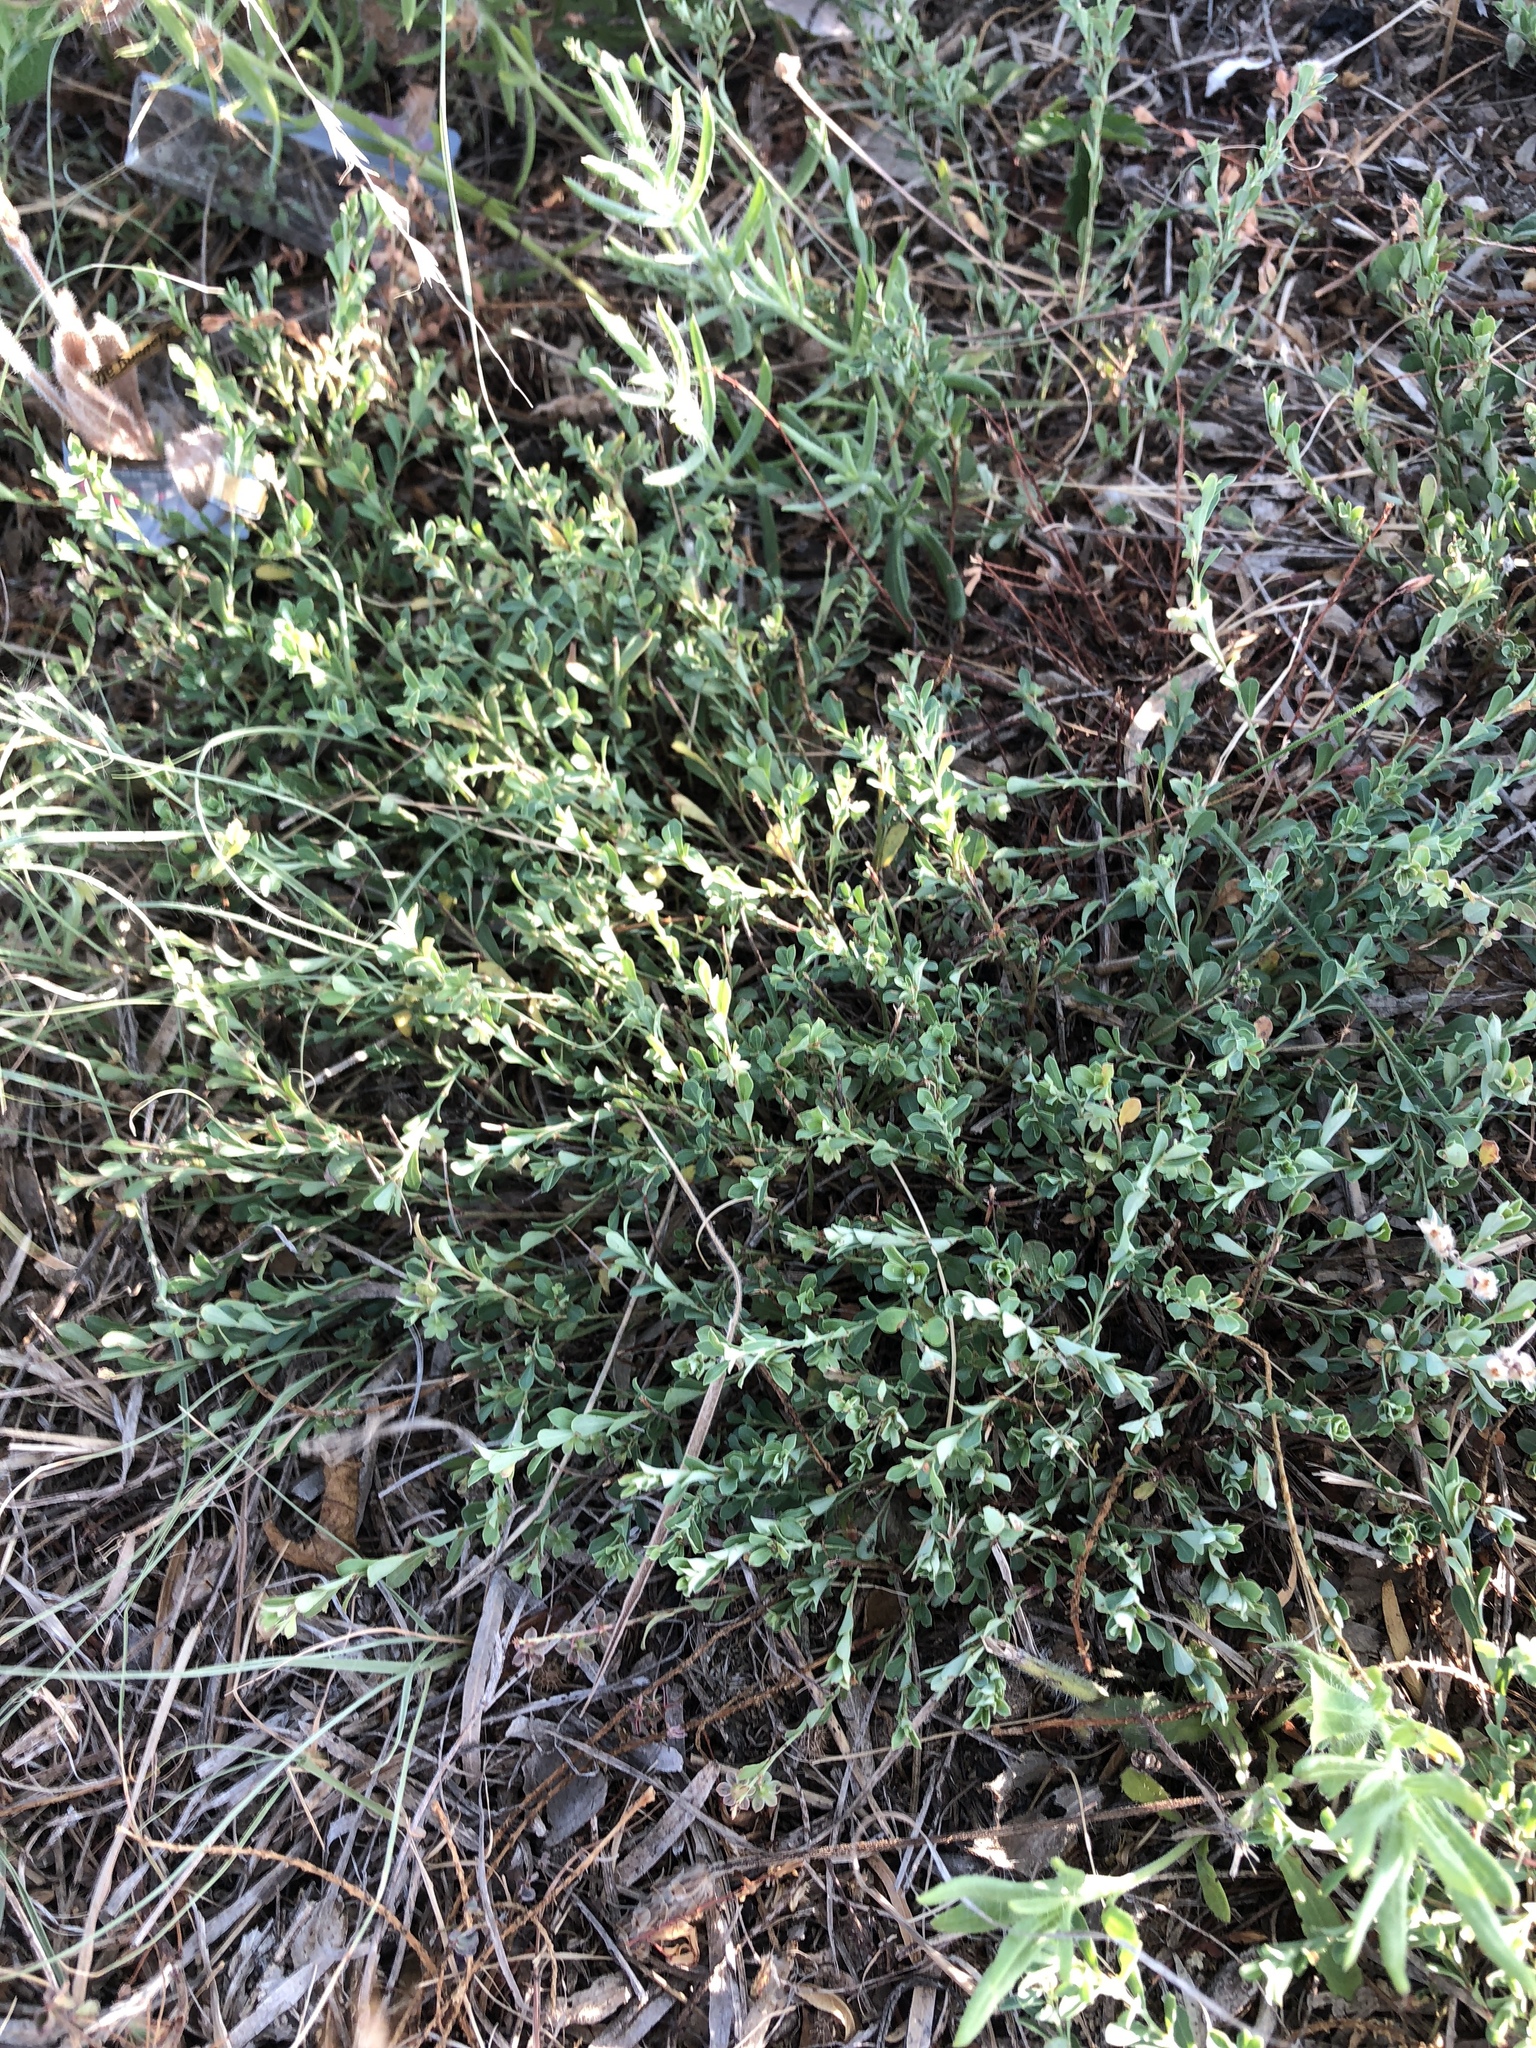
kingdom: Plantae
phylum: Tracheophyta
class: Magnoliopsida
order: Malpighiales
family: Phyllanthaceae
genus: Phyllanthus
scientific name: Phyllanthus polygonoides
